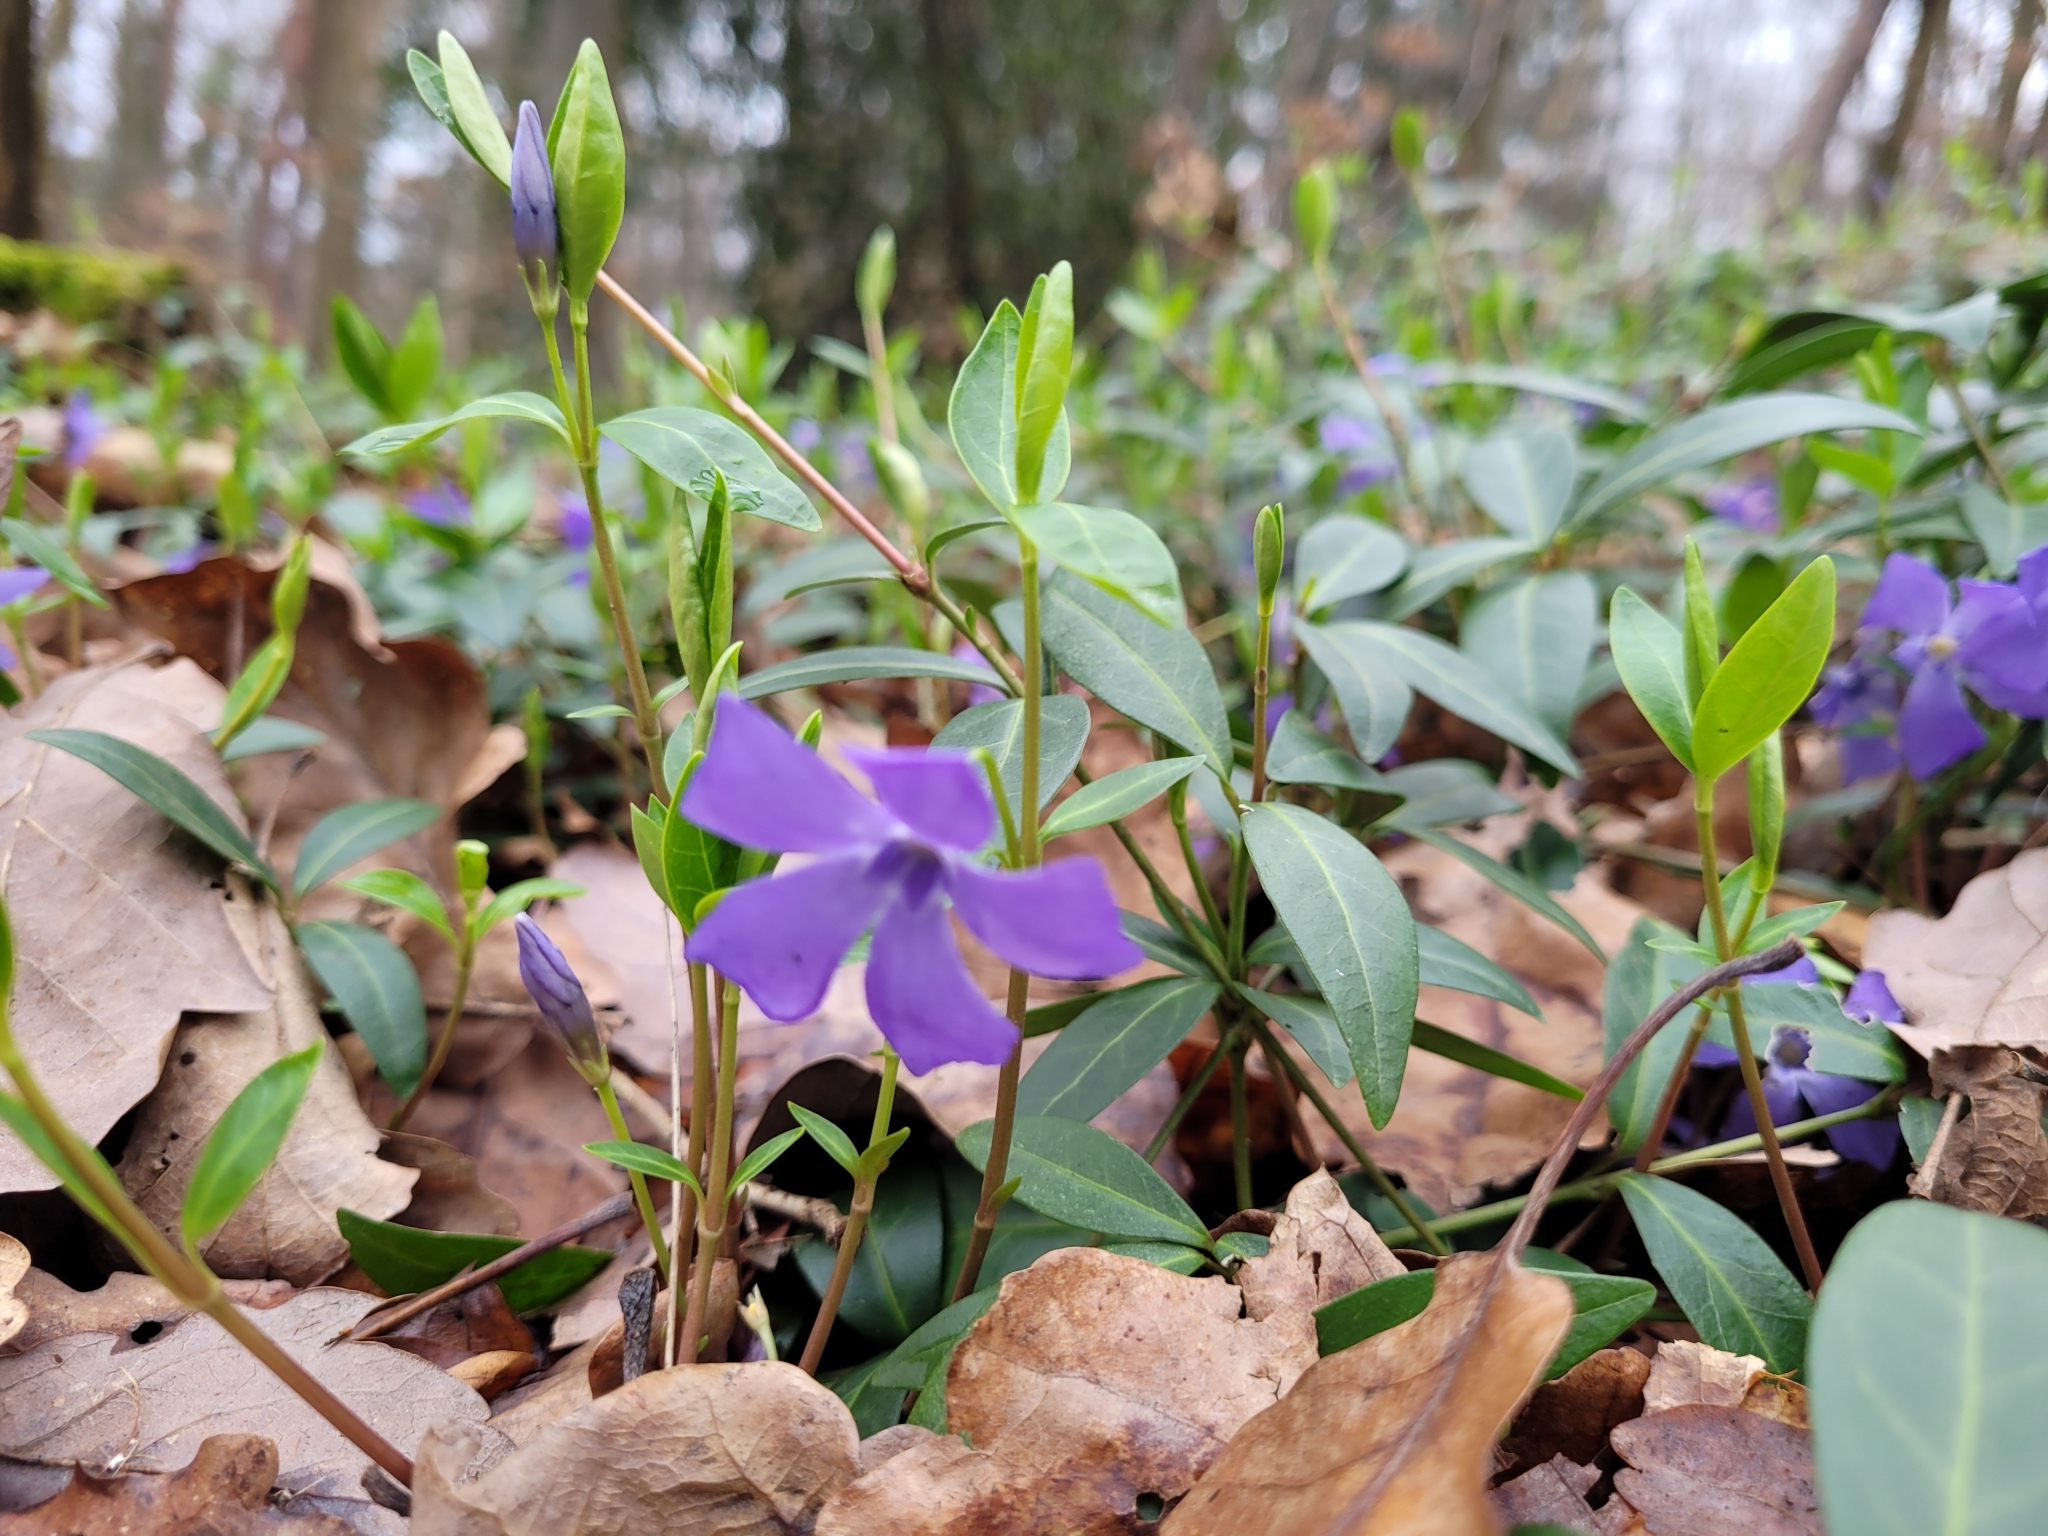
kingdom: Plantae
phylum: Tracheophyta
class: Magnoliopsida
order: Gentianales
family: Apocynaceae
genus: Vinca
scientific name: Vinca minor
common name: Lesser periwinkle
